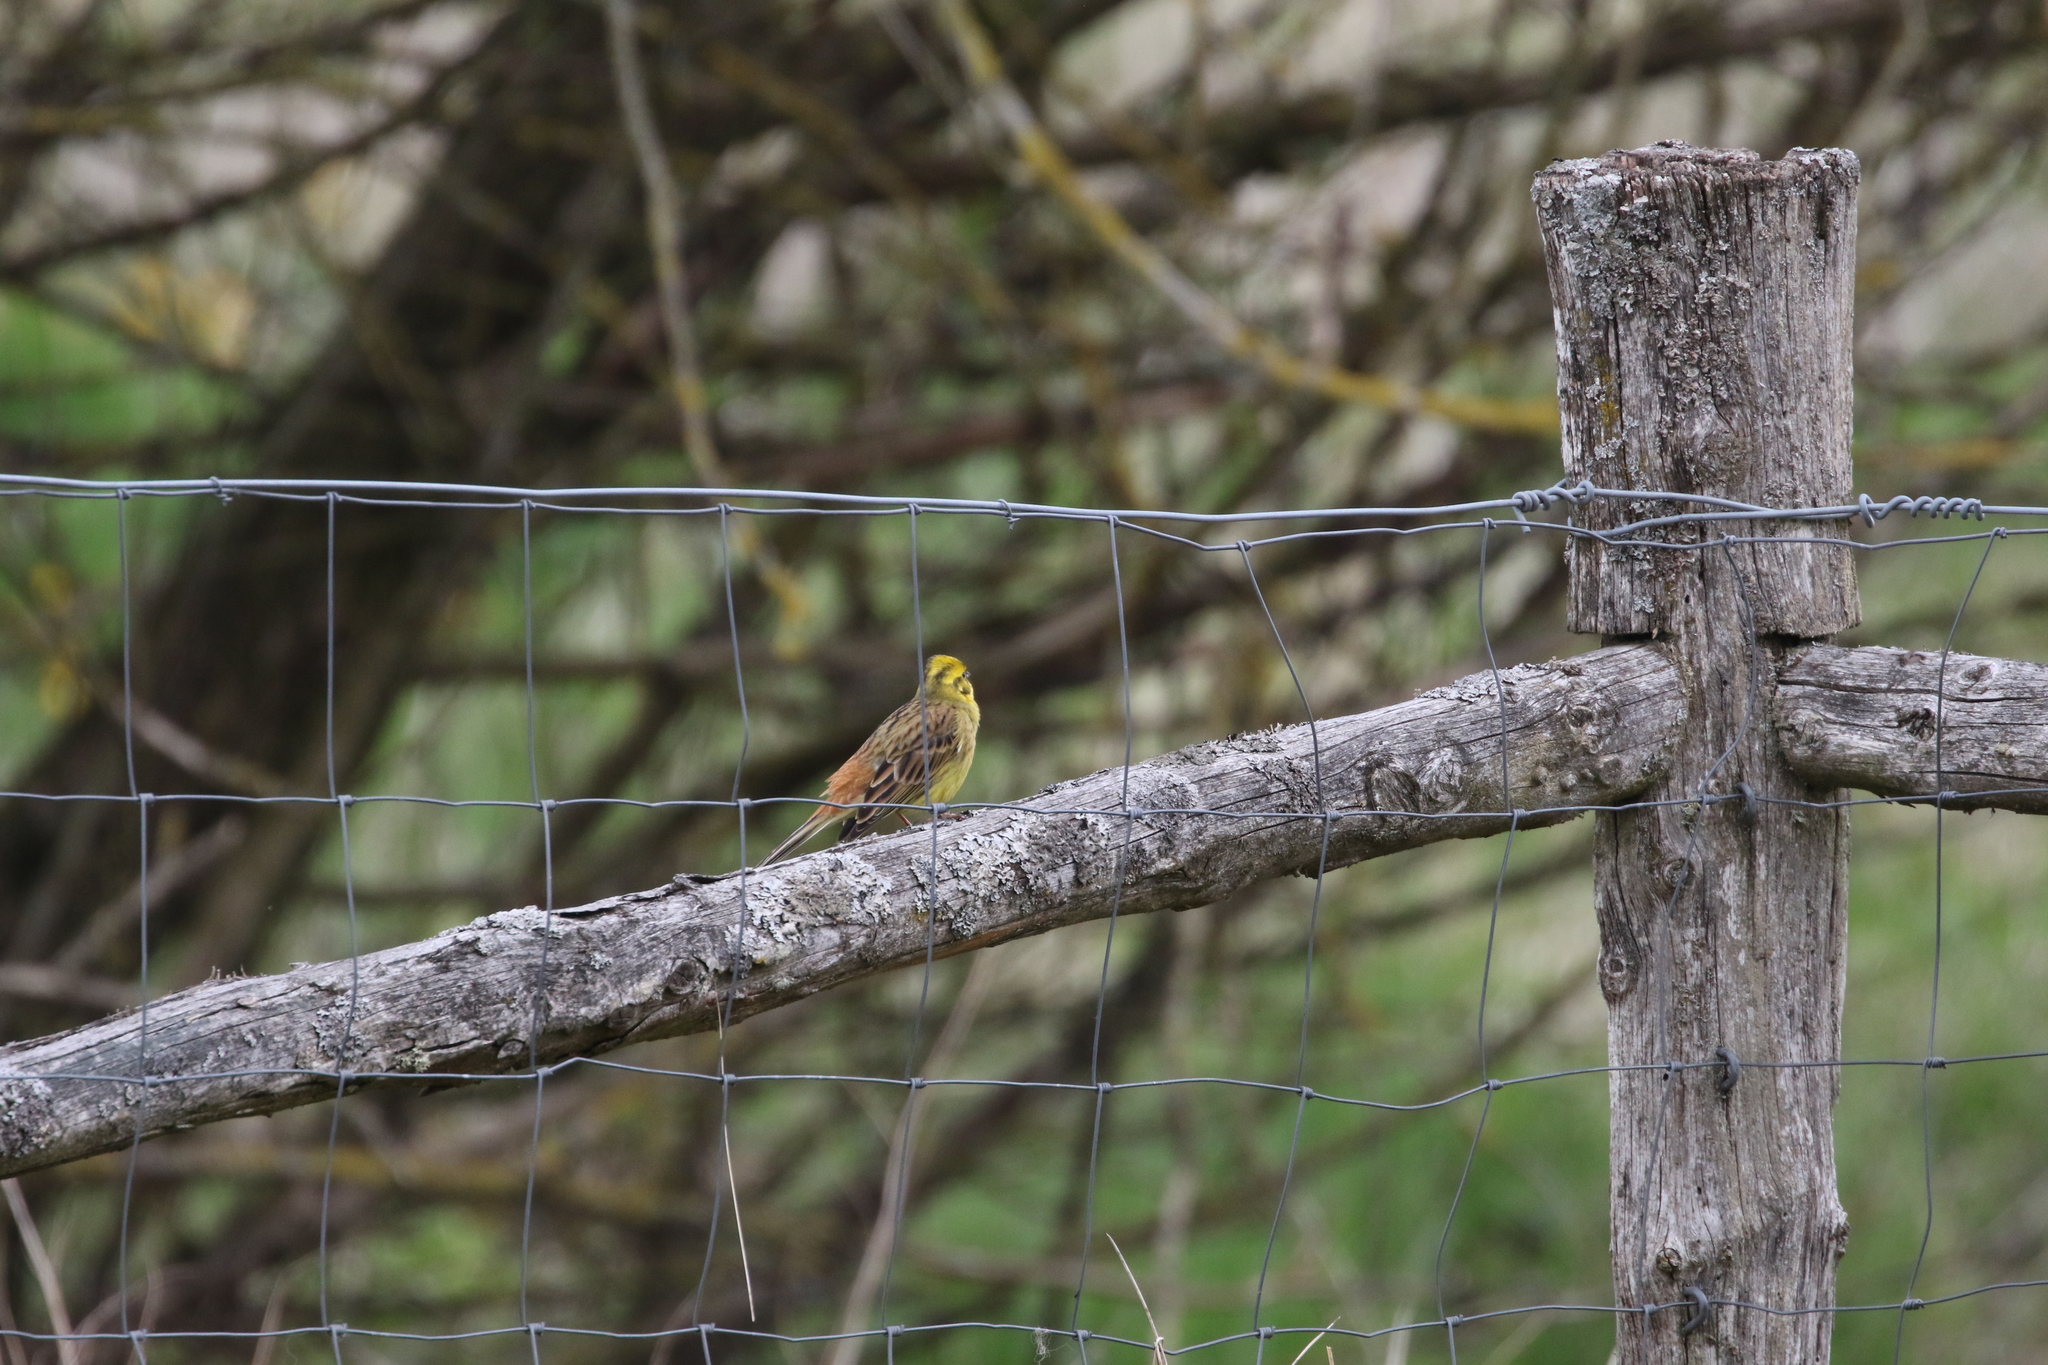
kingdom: Animalia
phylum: Chordata
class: Aves
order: Passeriformes
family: Emberizidae
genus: Emberiza
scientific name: Emberiza citrinella
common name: Yellowhammer
